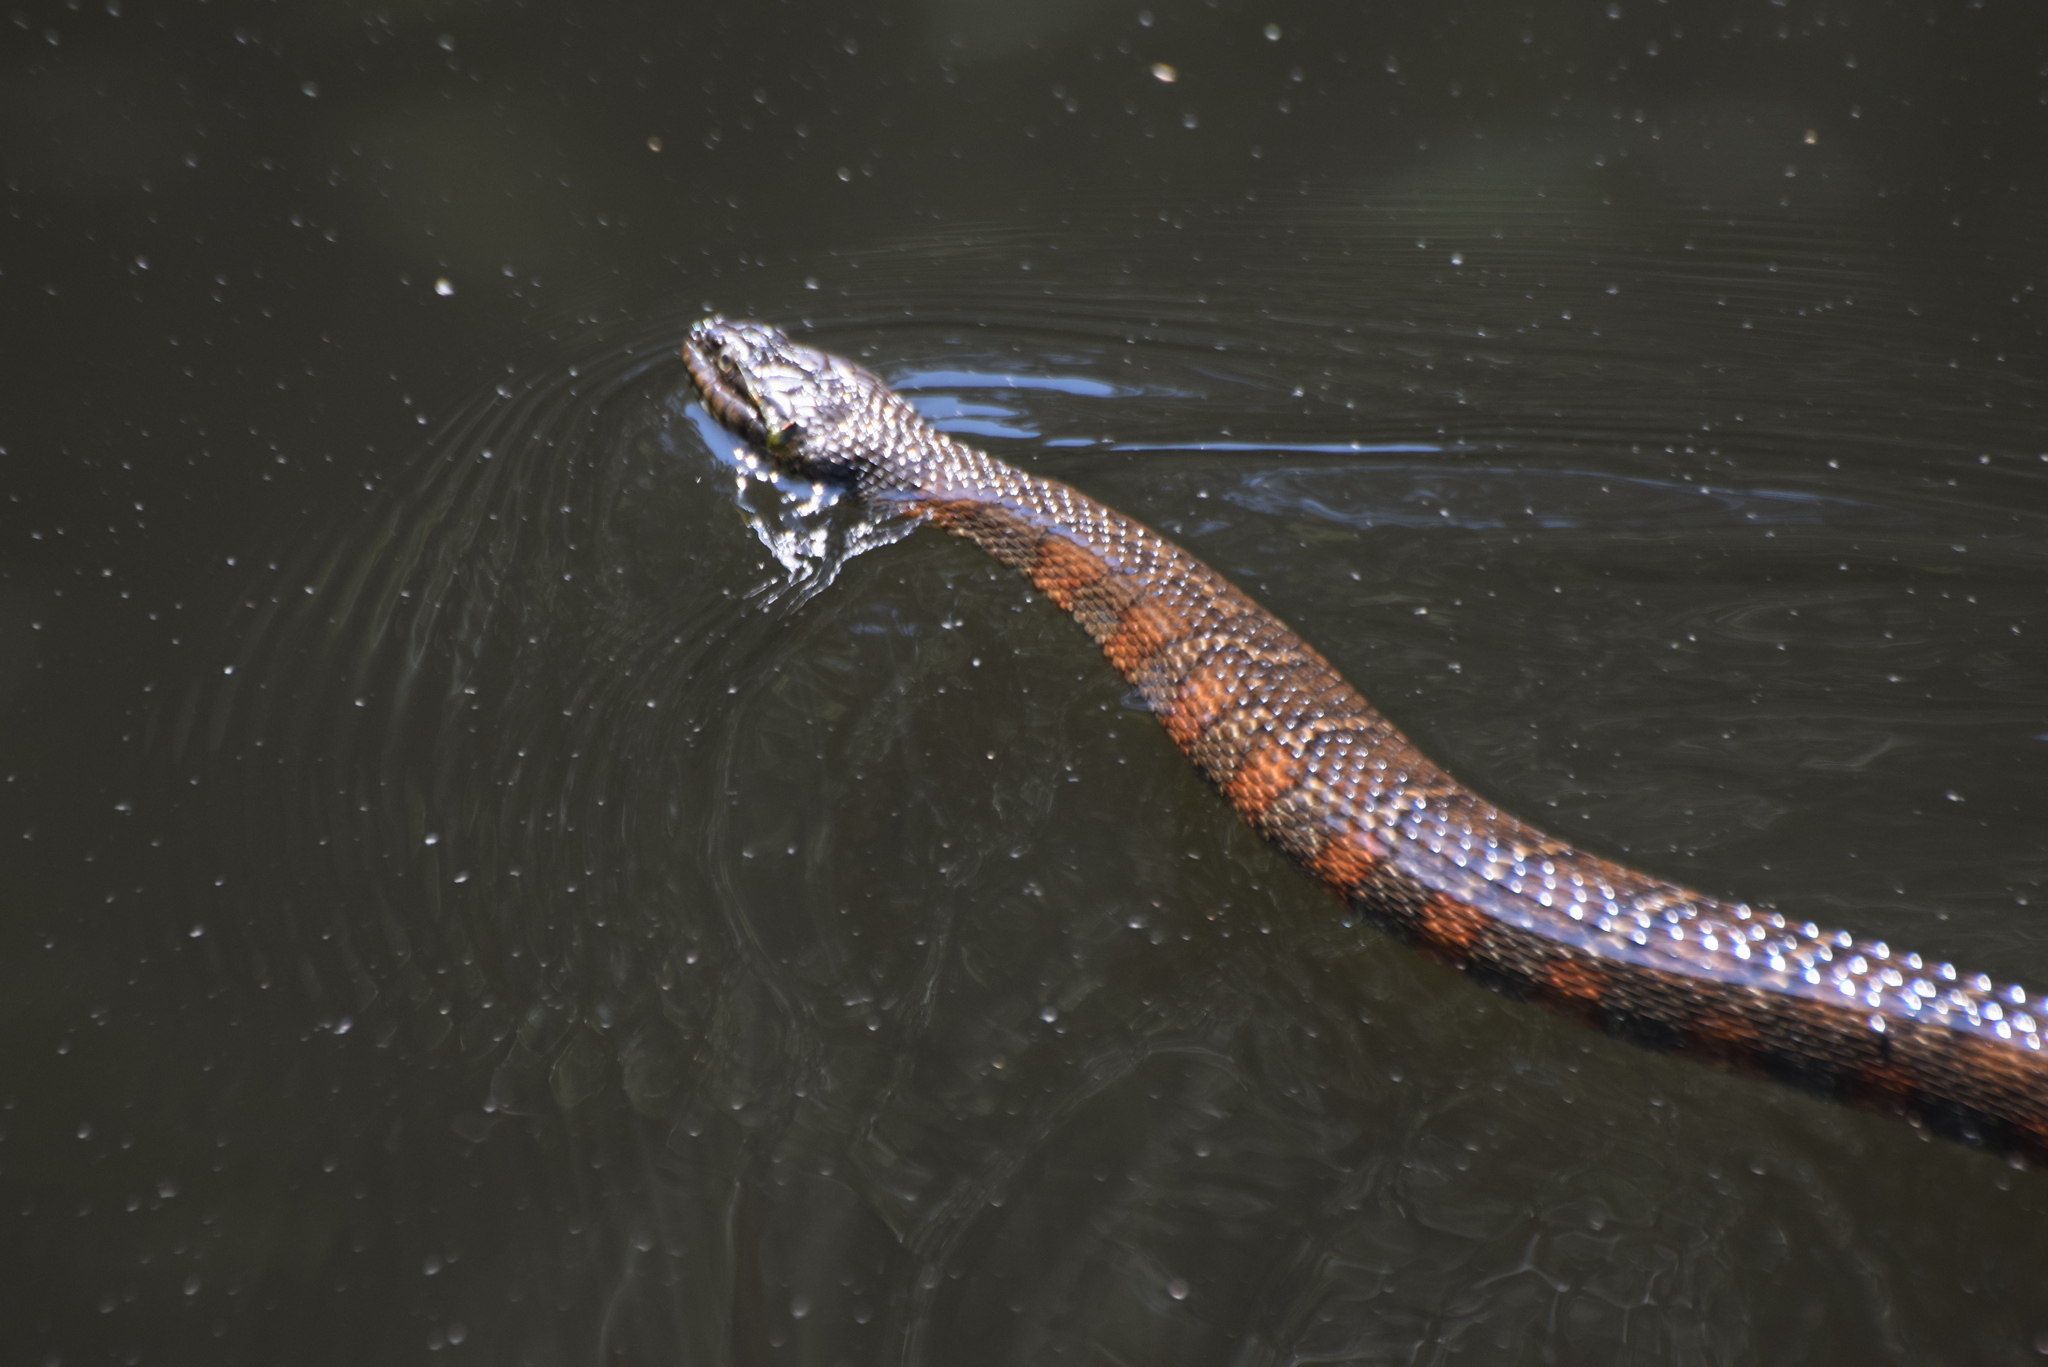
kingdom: Animalia
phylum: Chordata
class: Squamata
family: Colubridae
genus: Nerodia
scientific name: Nerodia sipedon
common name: Northern water snake
